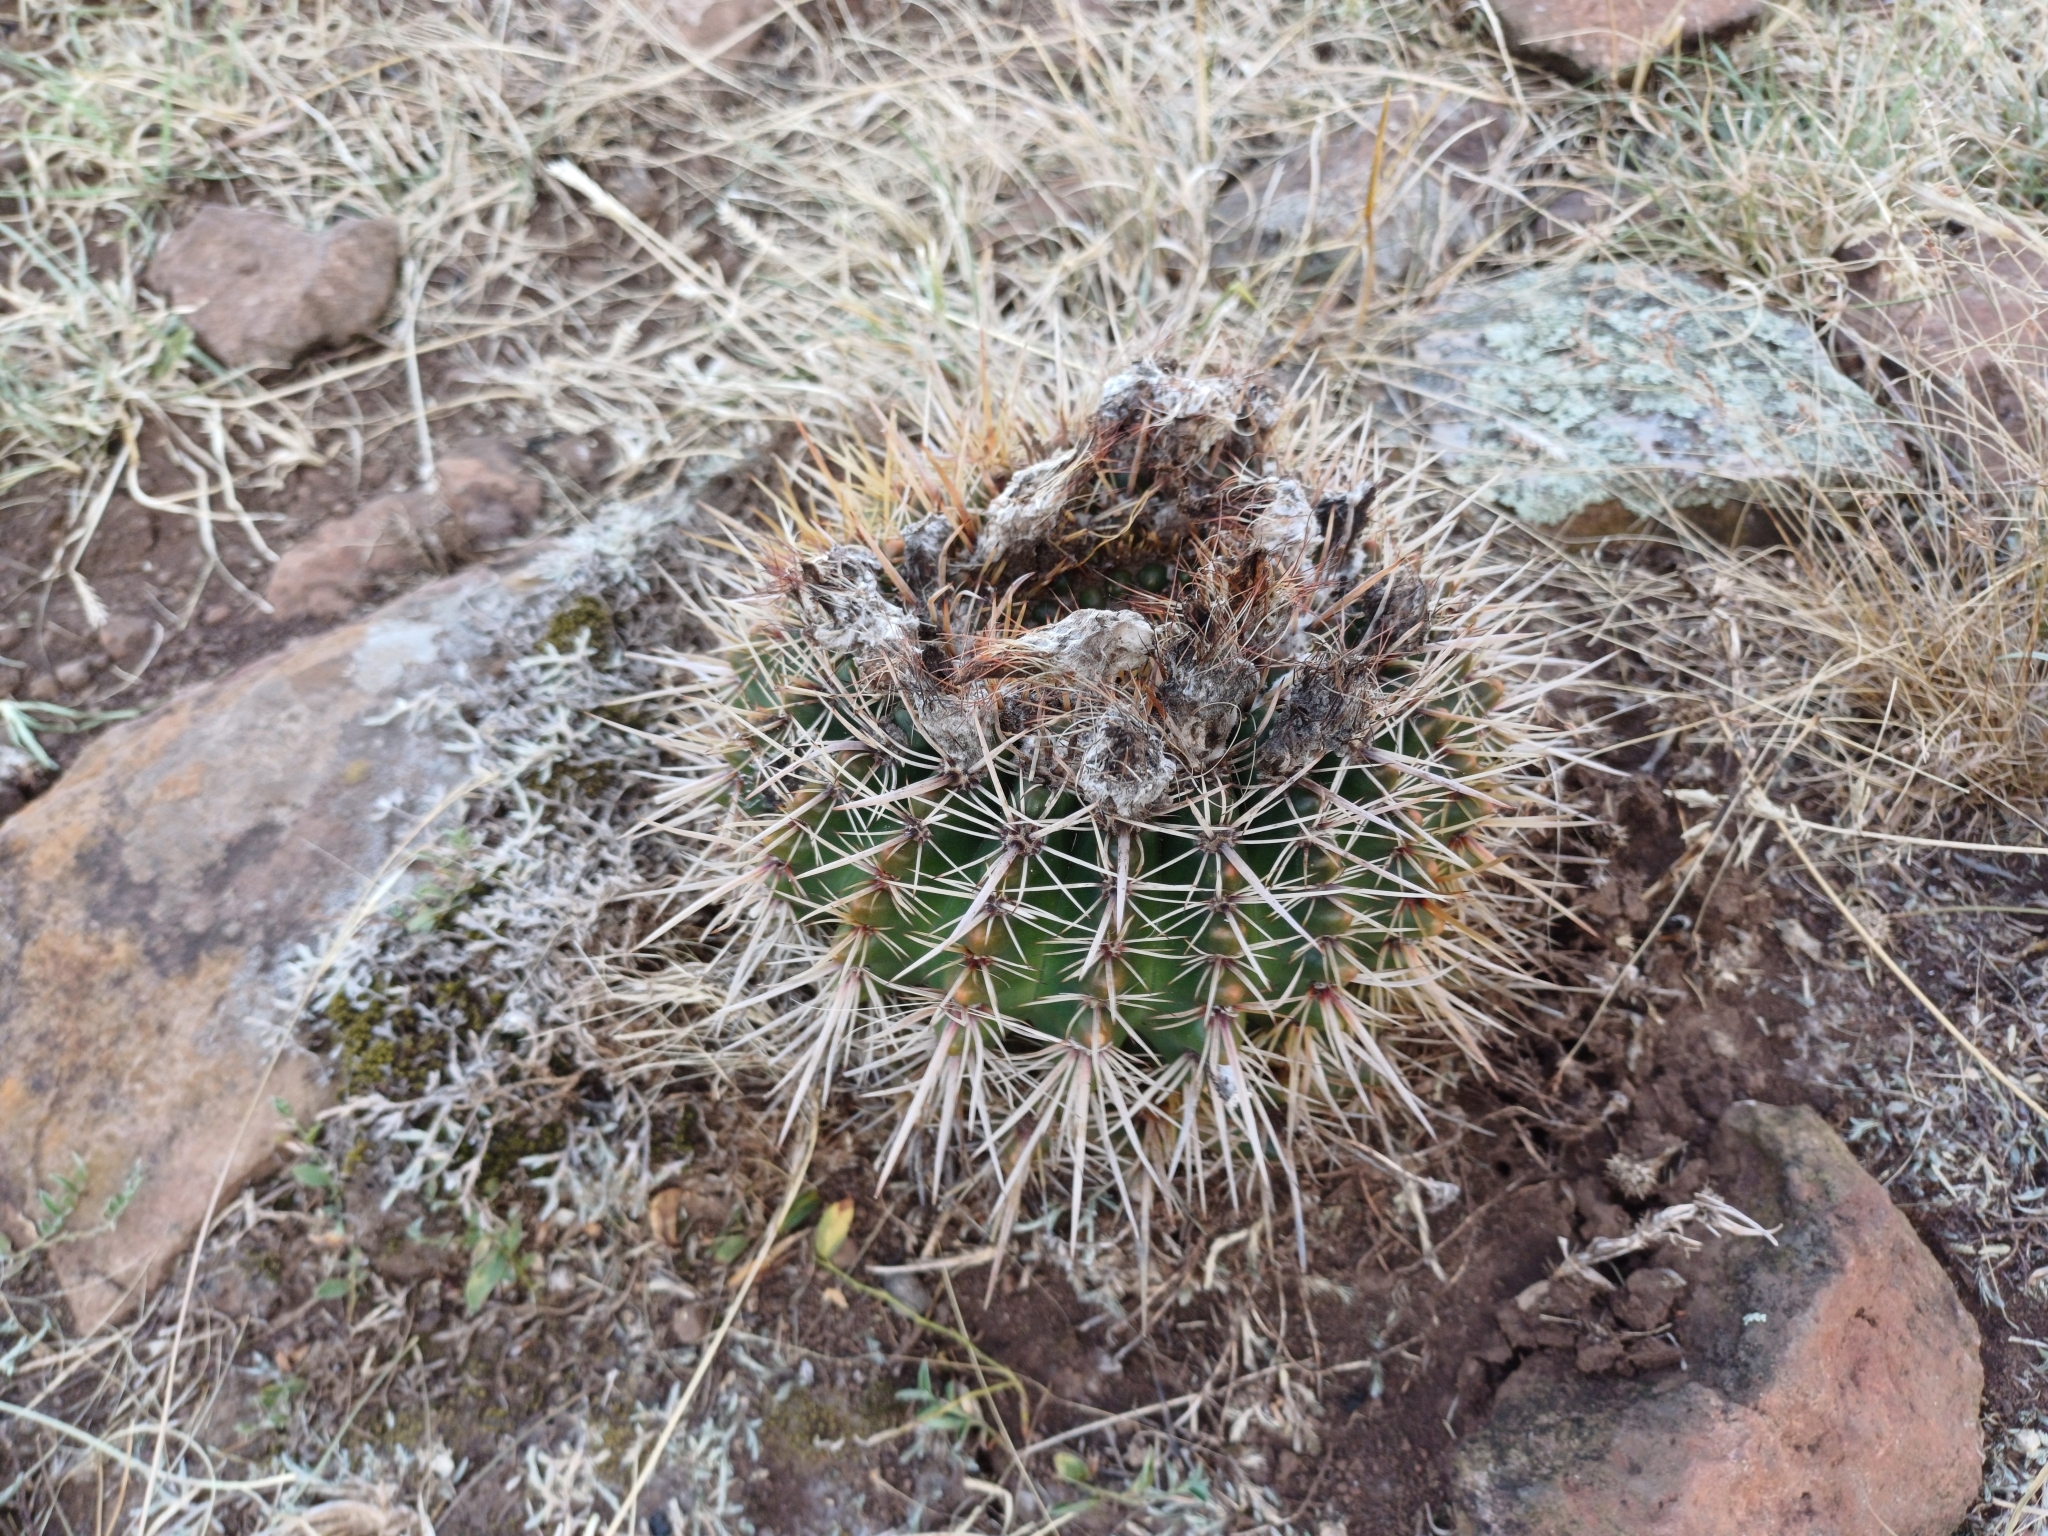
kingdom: Plantae
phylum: Tracheophyta
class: Magnoliopsida
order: Caryophyllales
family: Cactaceae
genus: Parodia
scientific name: Parodia mammulosa
